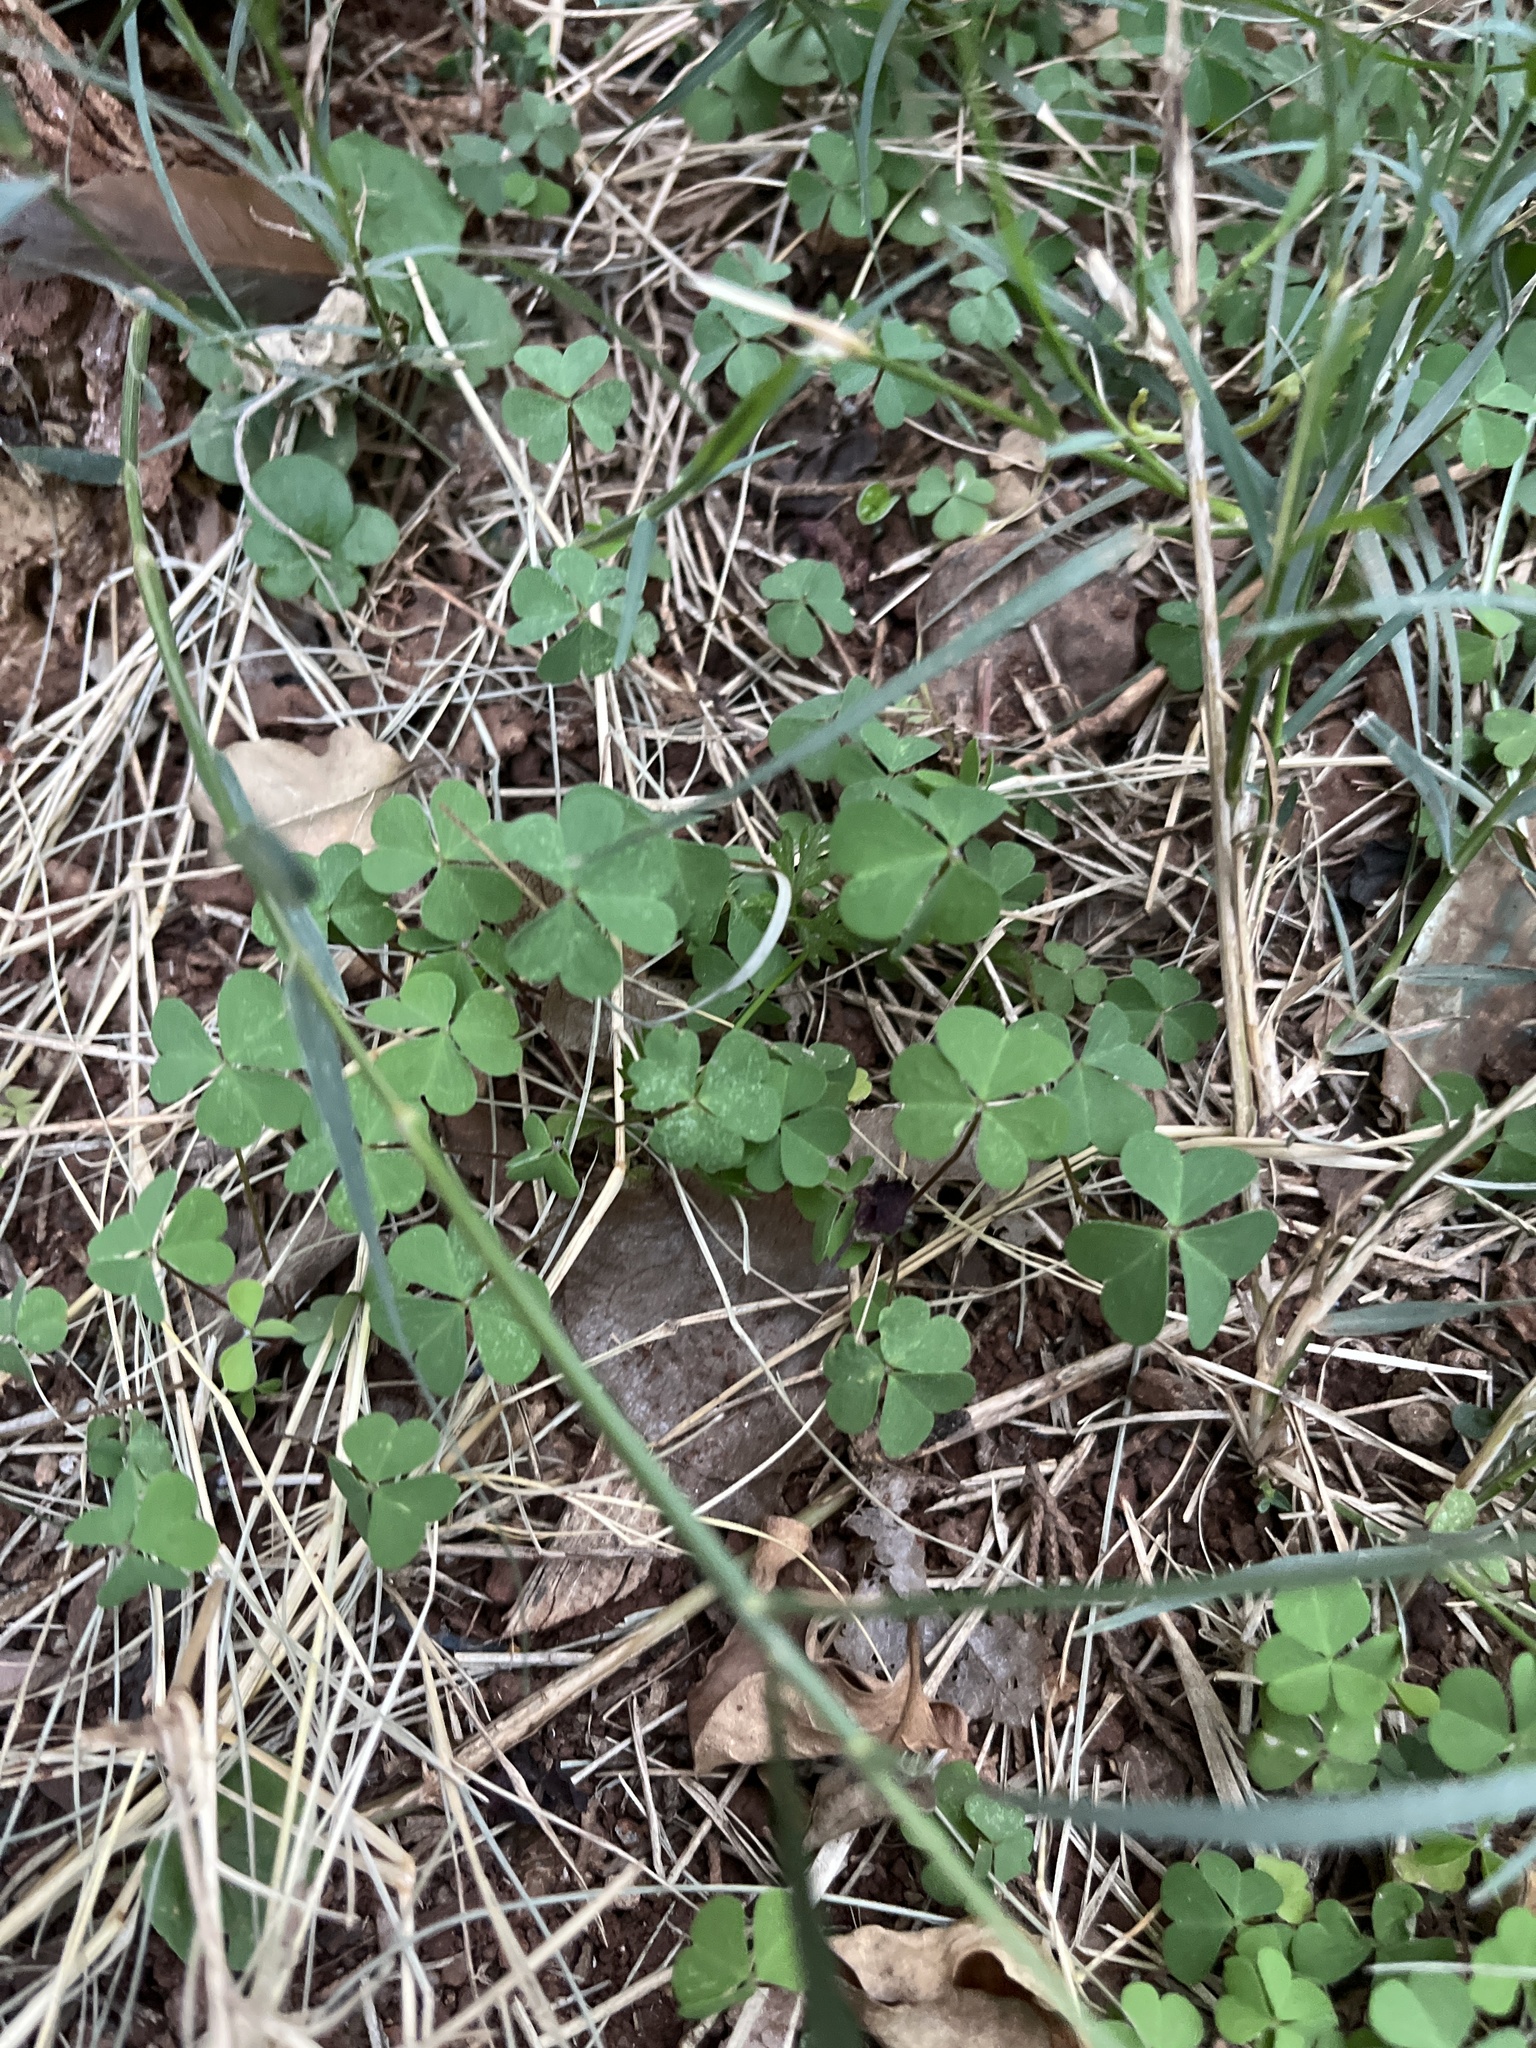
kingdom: Plantae
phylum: Tracheophyta
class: Magnoliopsida
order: Oxalidales
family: Oxalidaceae
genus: Oxalis
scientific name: Oxalis corniculata
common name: Procumbent yellow-sorrel
